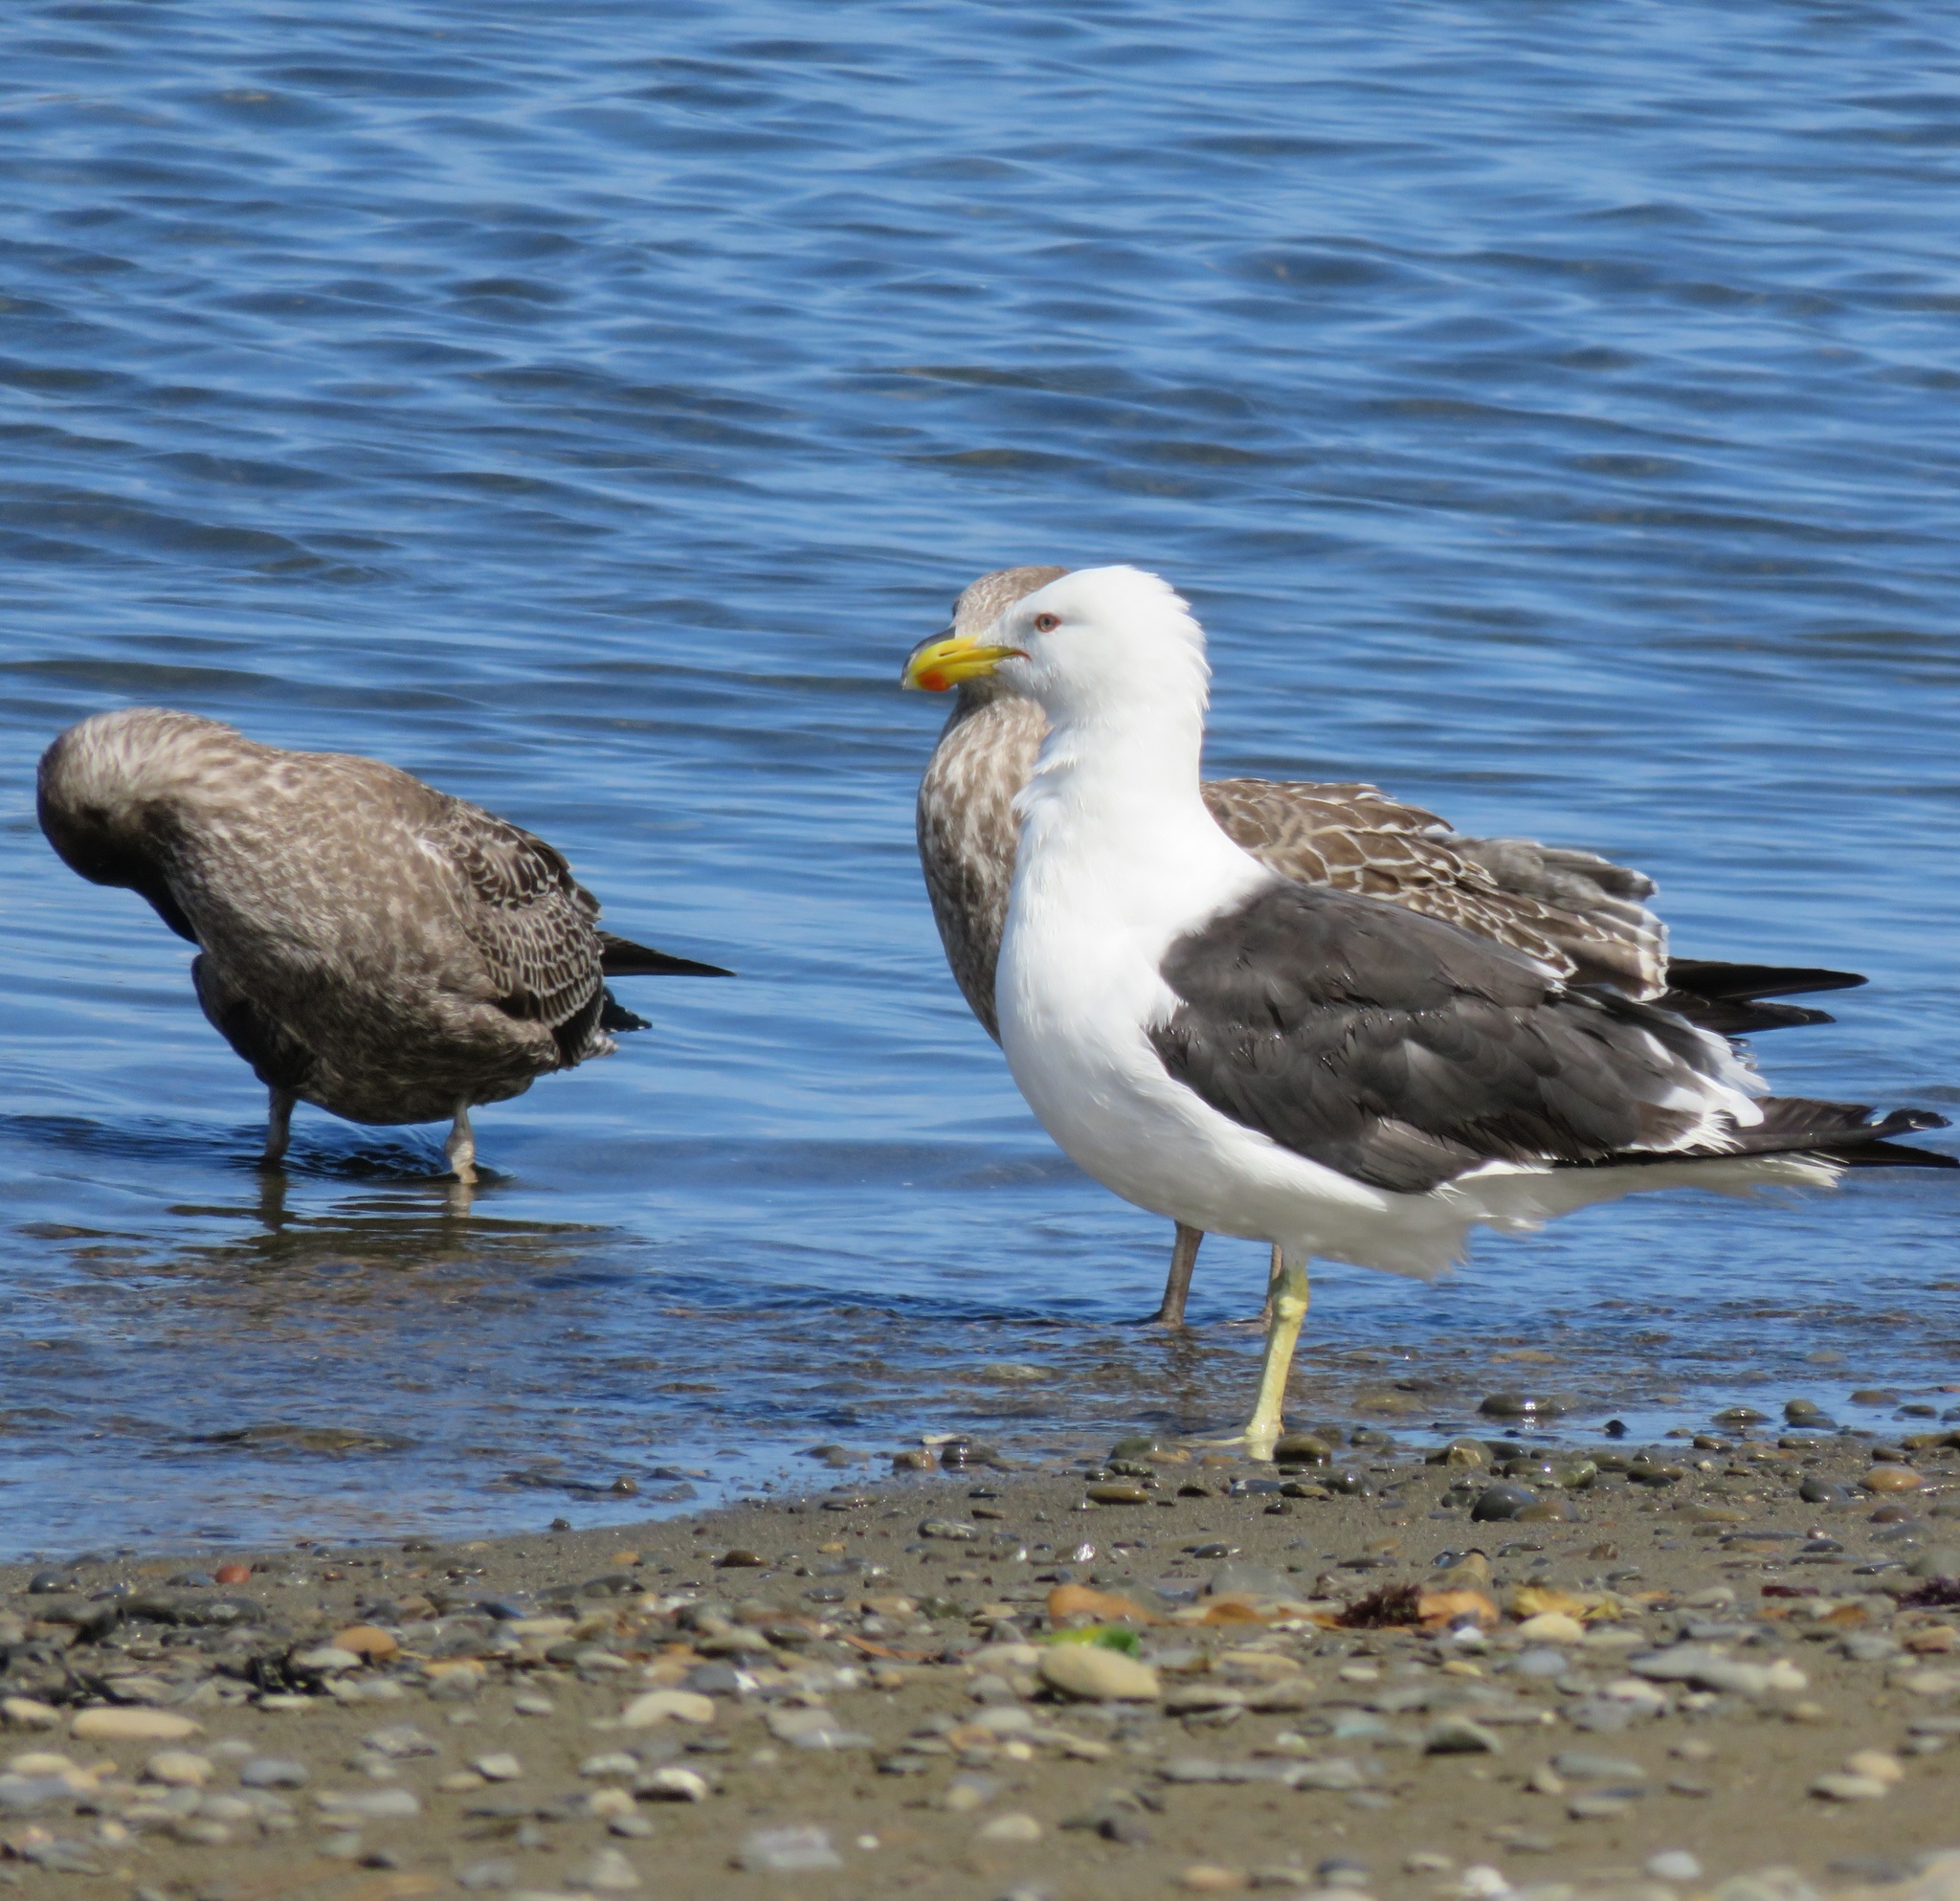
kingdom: Animalia
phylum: Chordata
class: Aves
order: Charadriiformes
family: Laridae
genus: Larus
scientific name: Larus dominicanus
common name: Kelp gull
